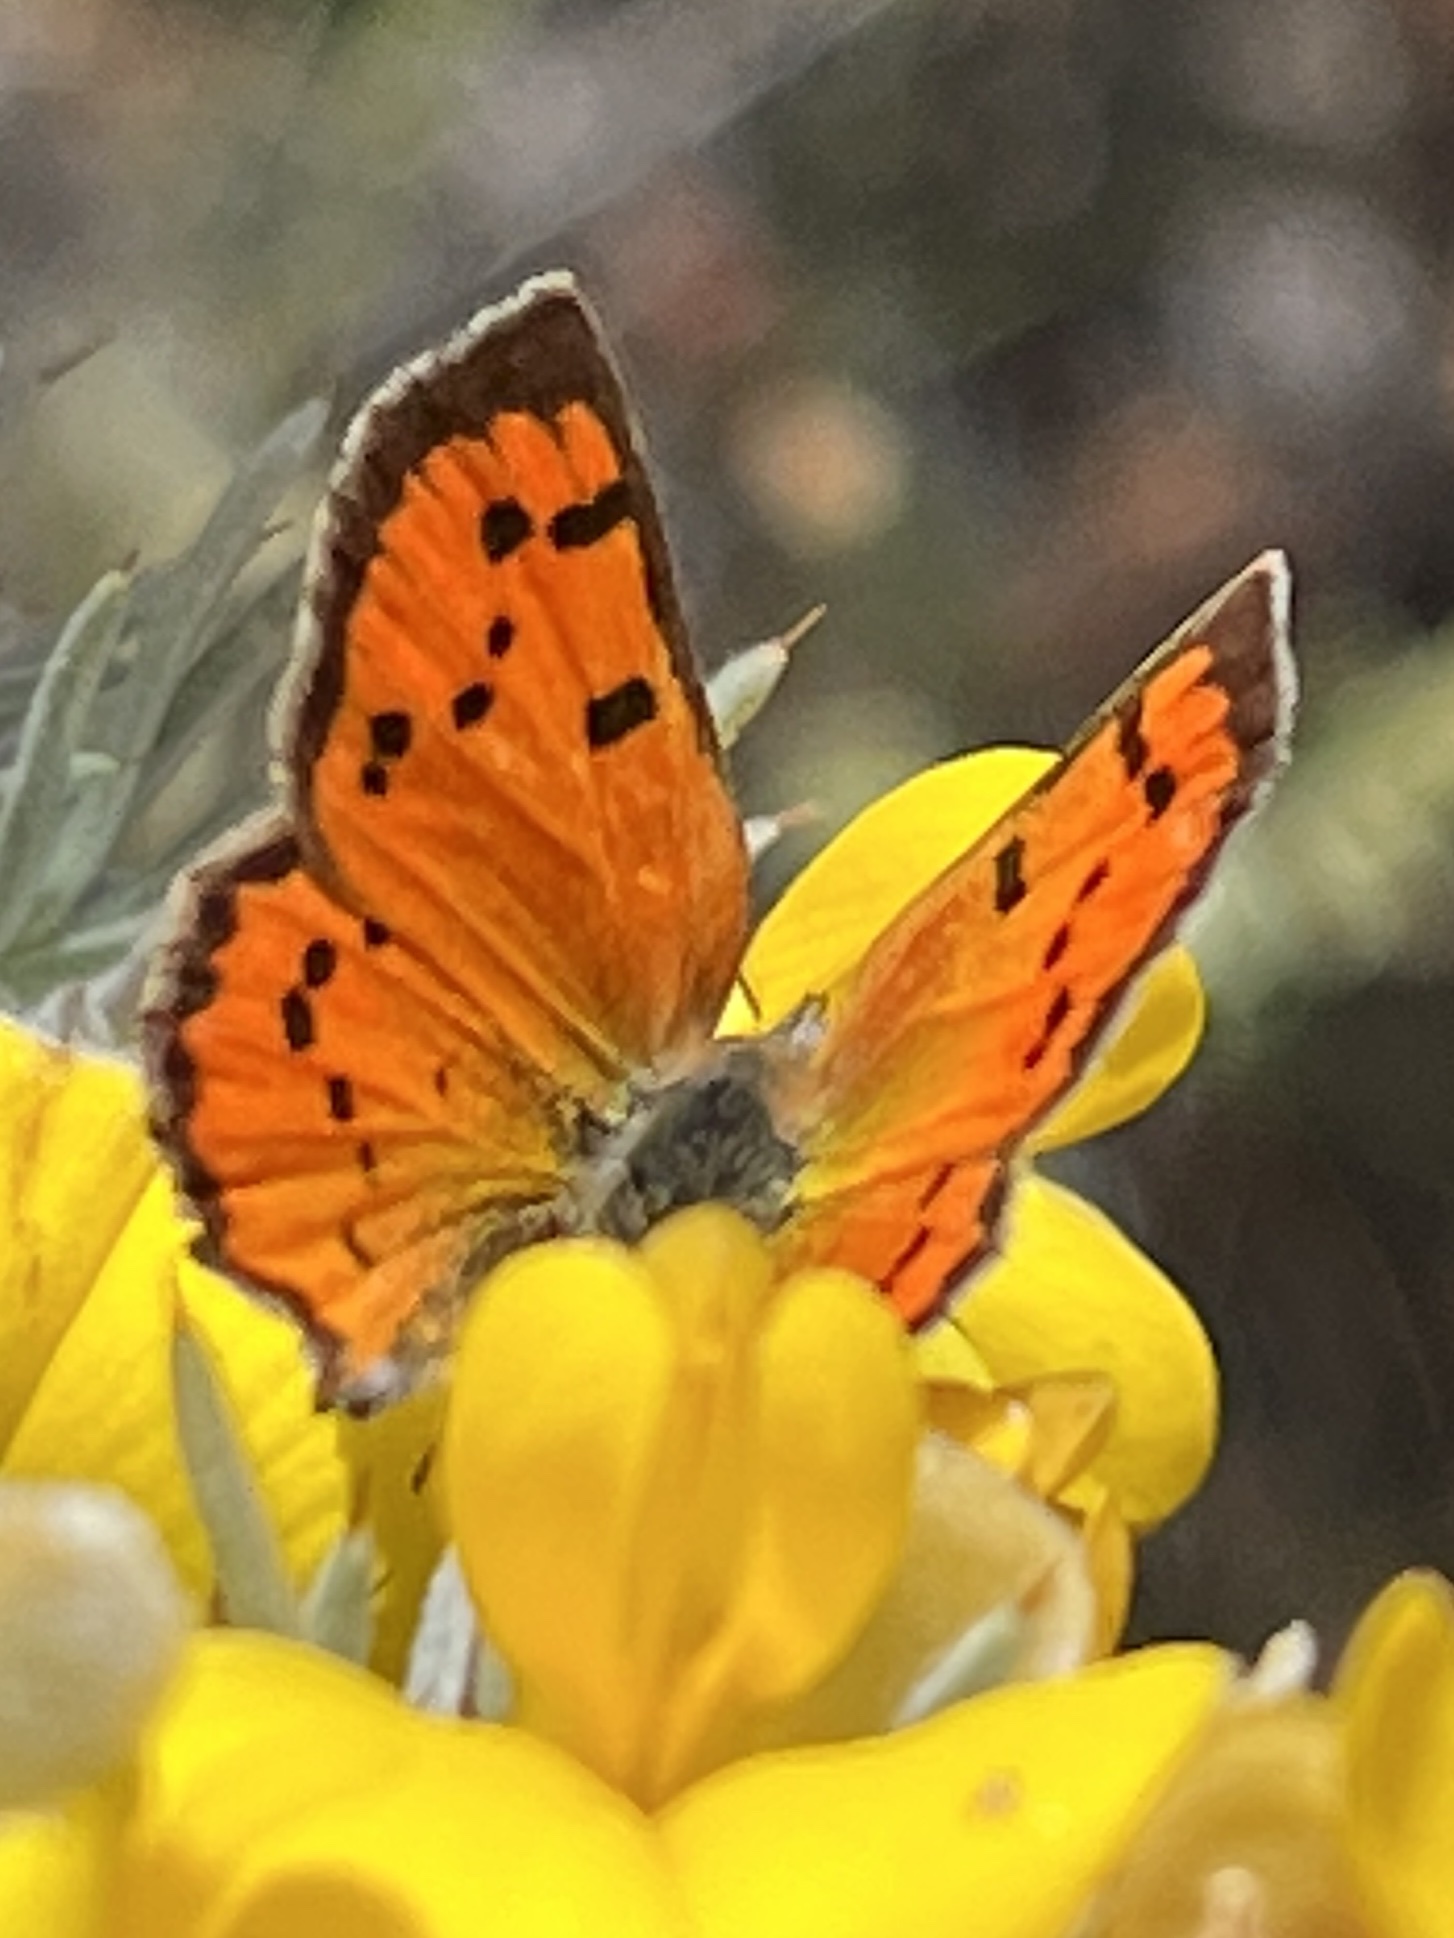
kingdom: Animalia
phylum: Arthropoda
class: Insecta
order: Lepidoptera
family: Lycaenidae
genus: Zeritis
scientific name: Zeritis chrysaor
